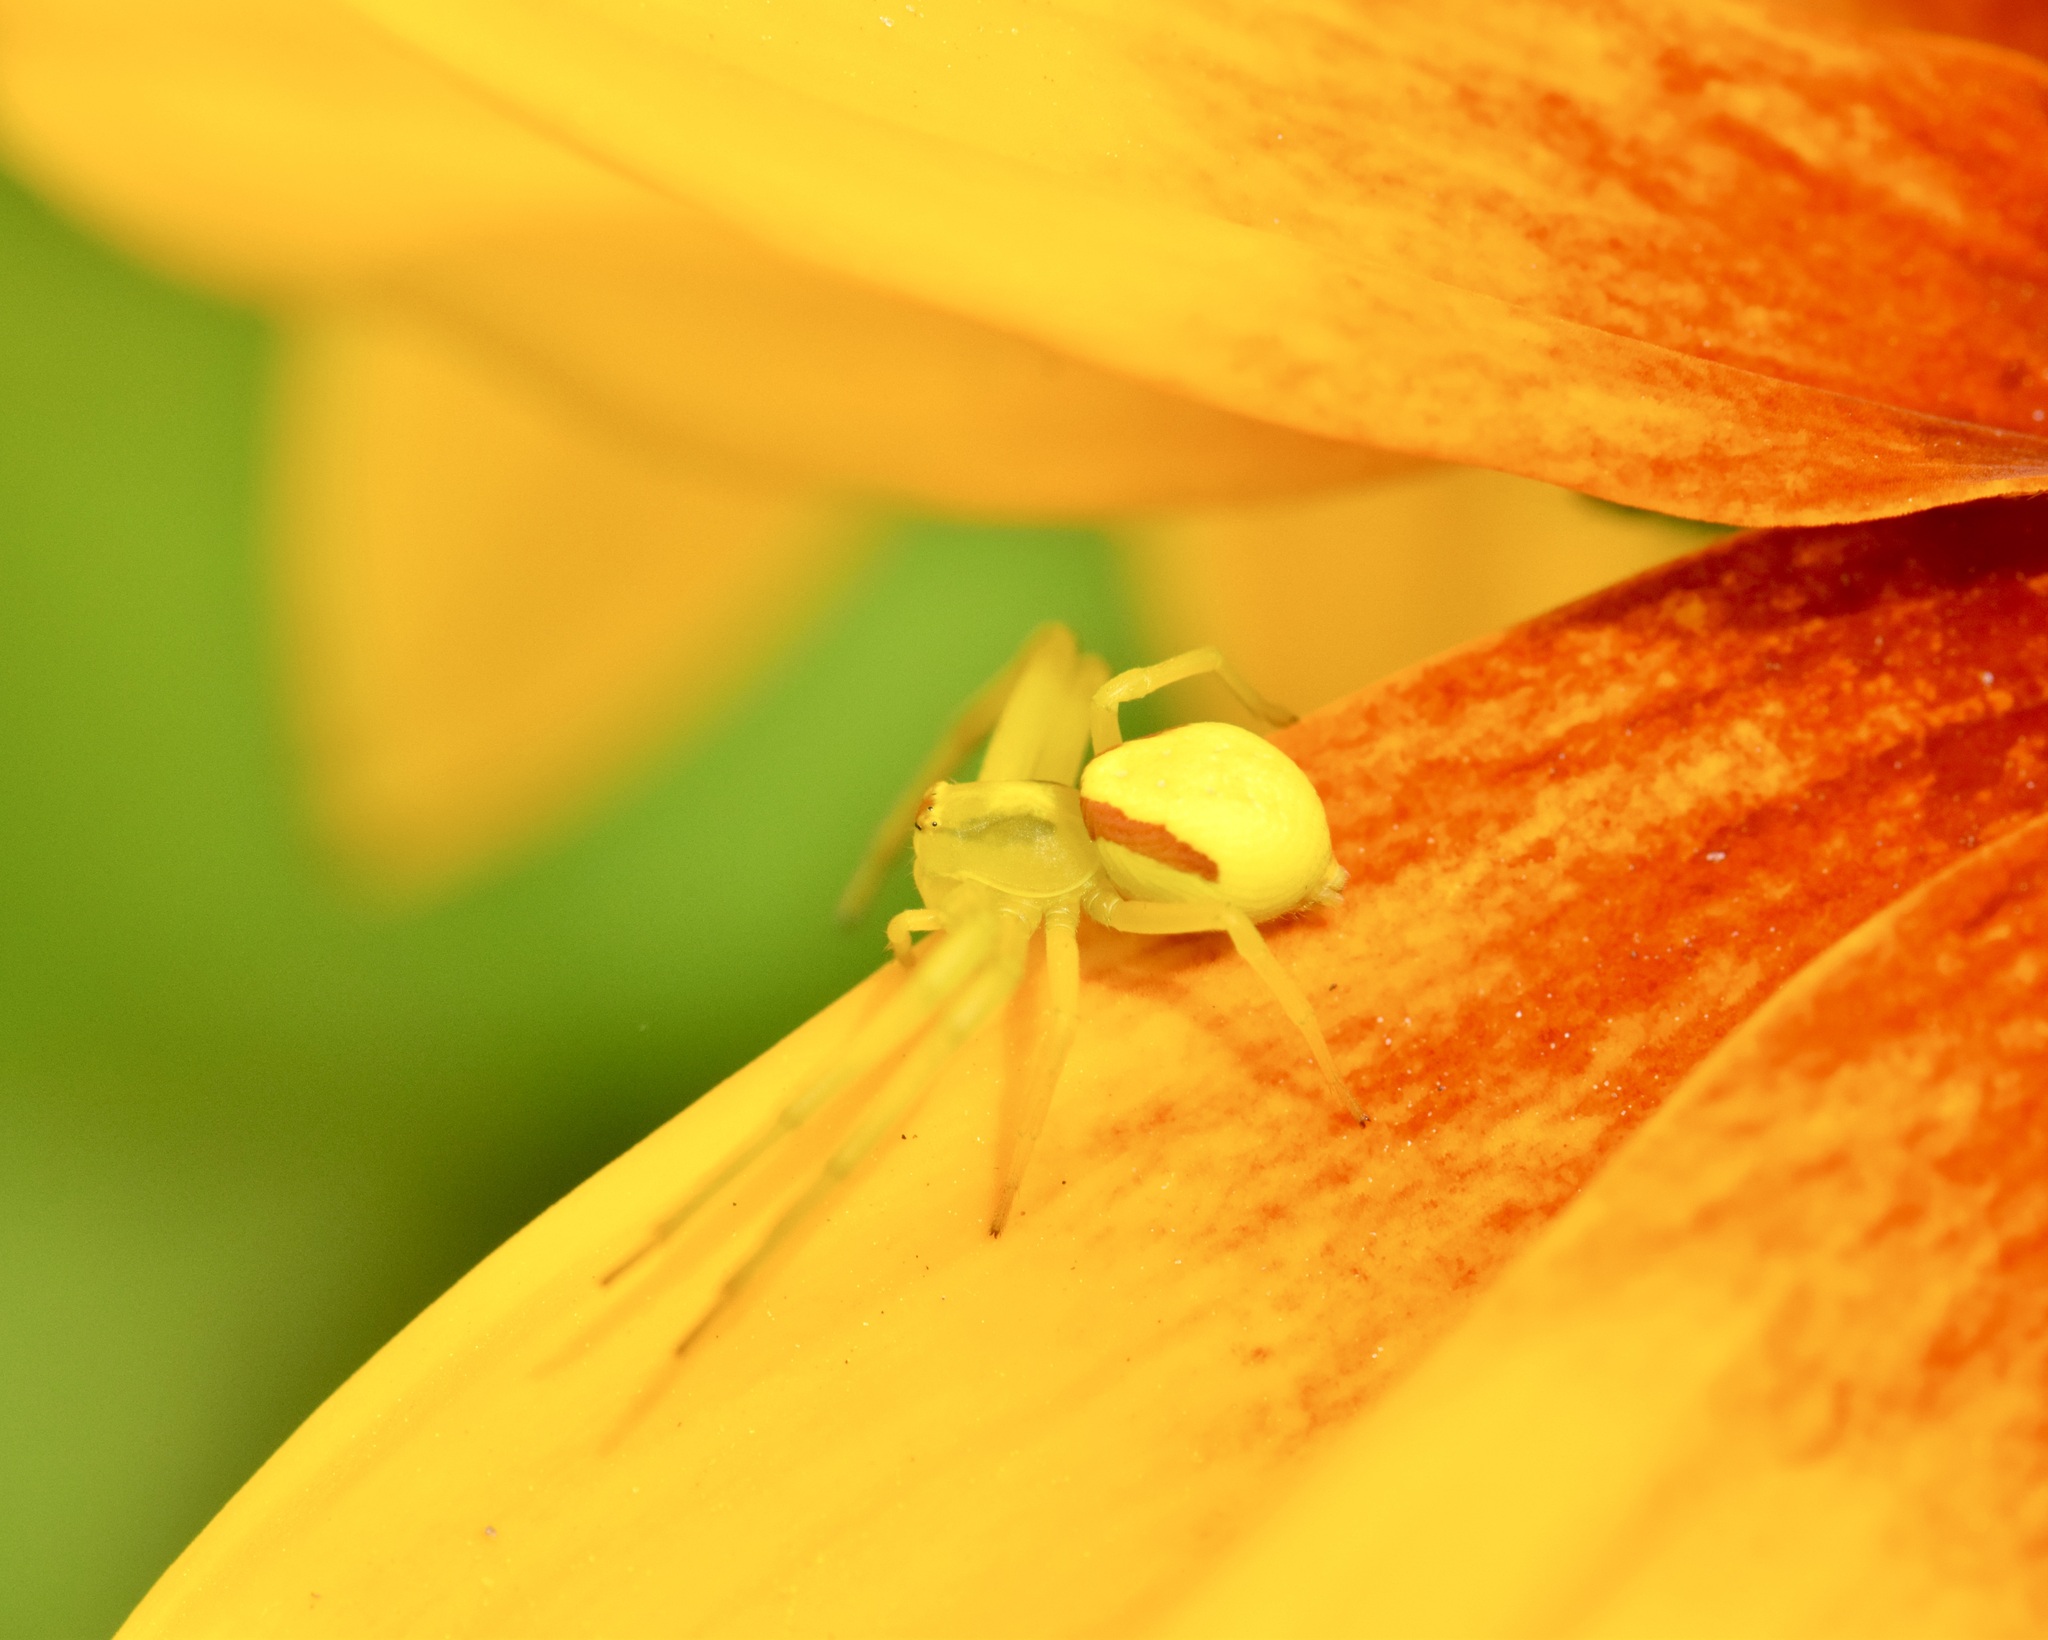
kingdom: Animalia
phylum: Arthropoda
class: Arachnida
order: Araneae
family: Thomisidae
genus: Misumena
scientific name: Misumena vatia
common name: Goldenrod crab spider
